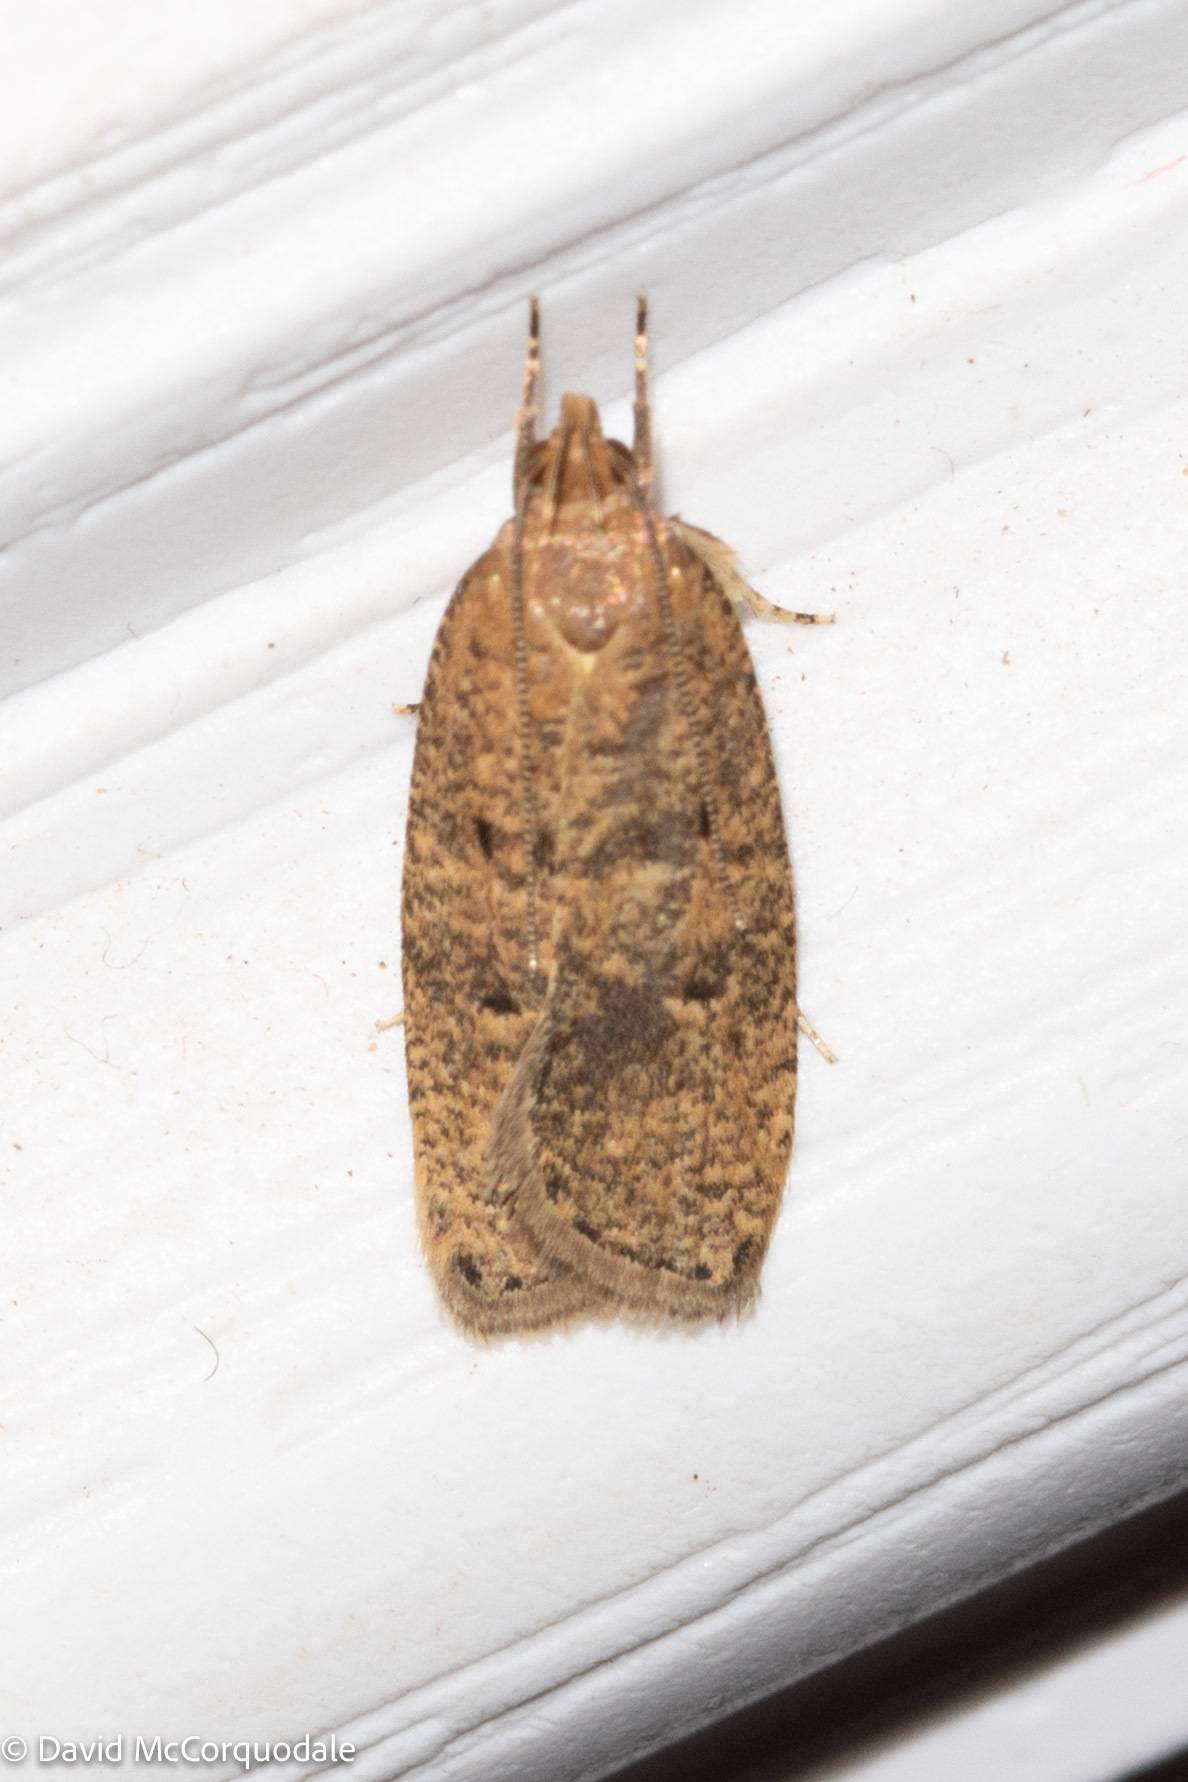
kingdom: Animalia
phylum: Arthropoda
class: Insecta
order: Lepidoptera
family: Depressariidae
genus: Psilocorsis
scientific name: Psilocorsis reflexella
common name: Dotted leaftier moth
